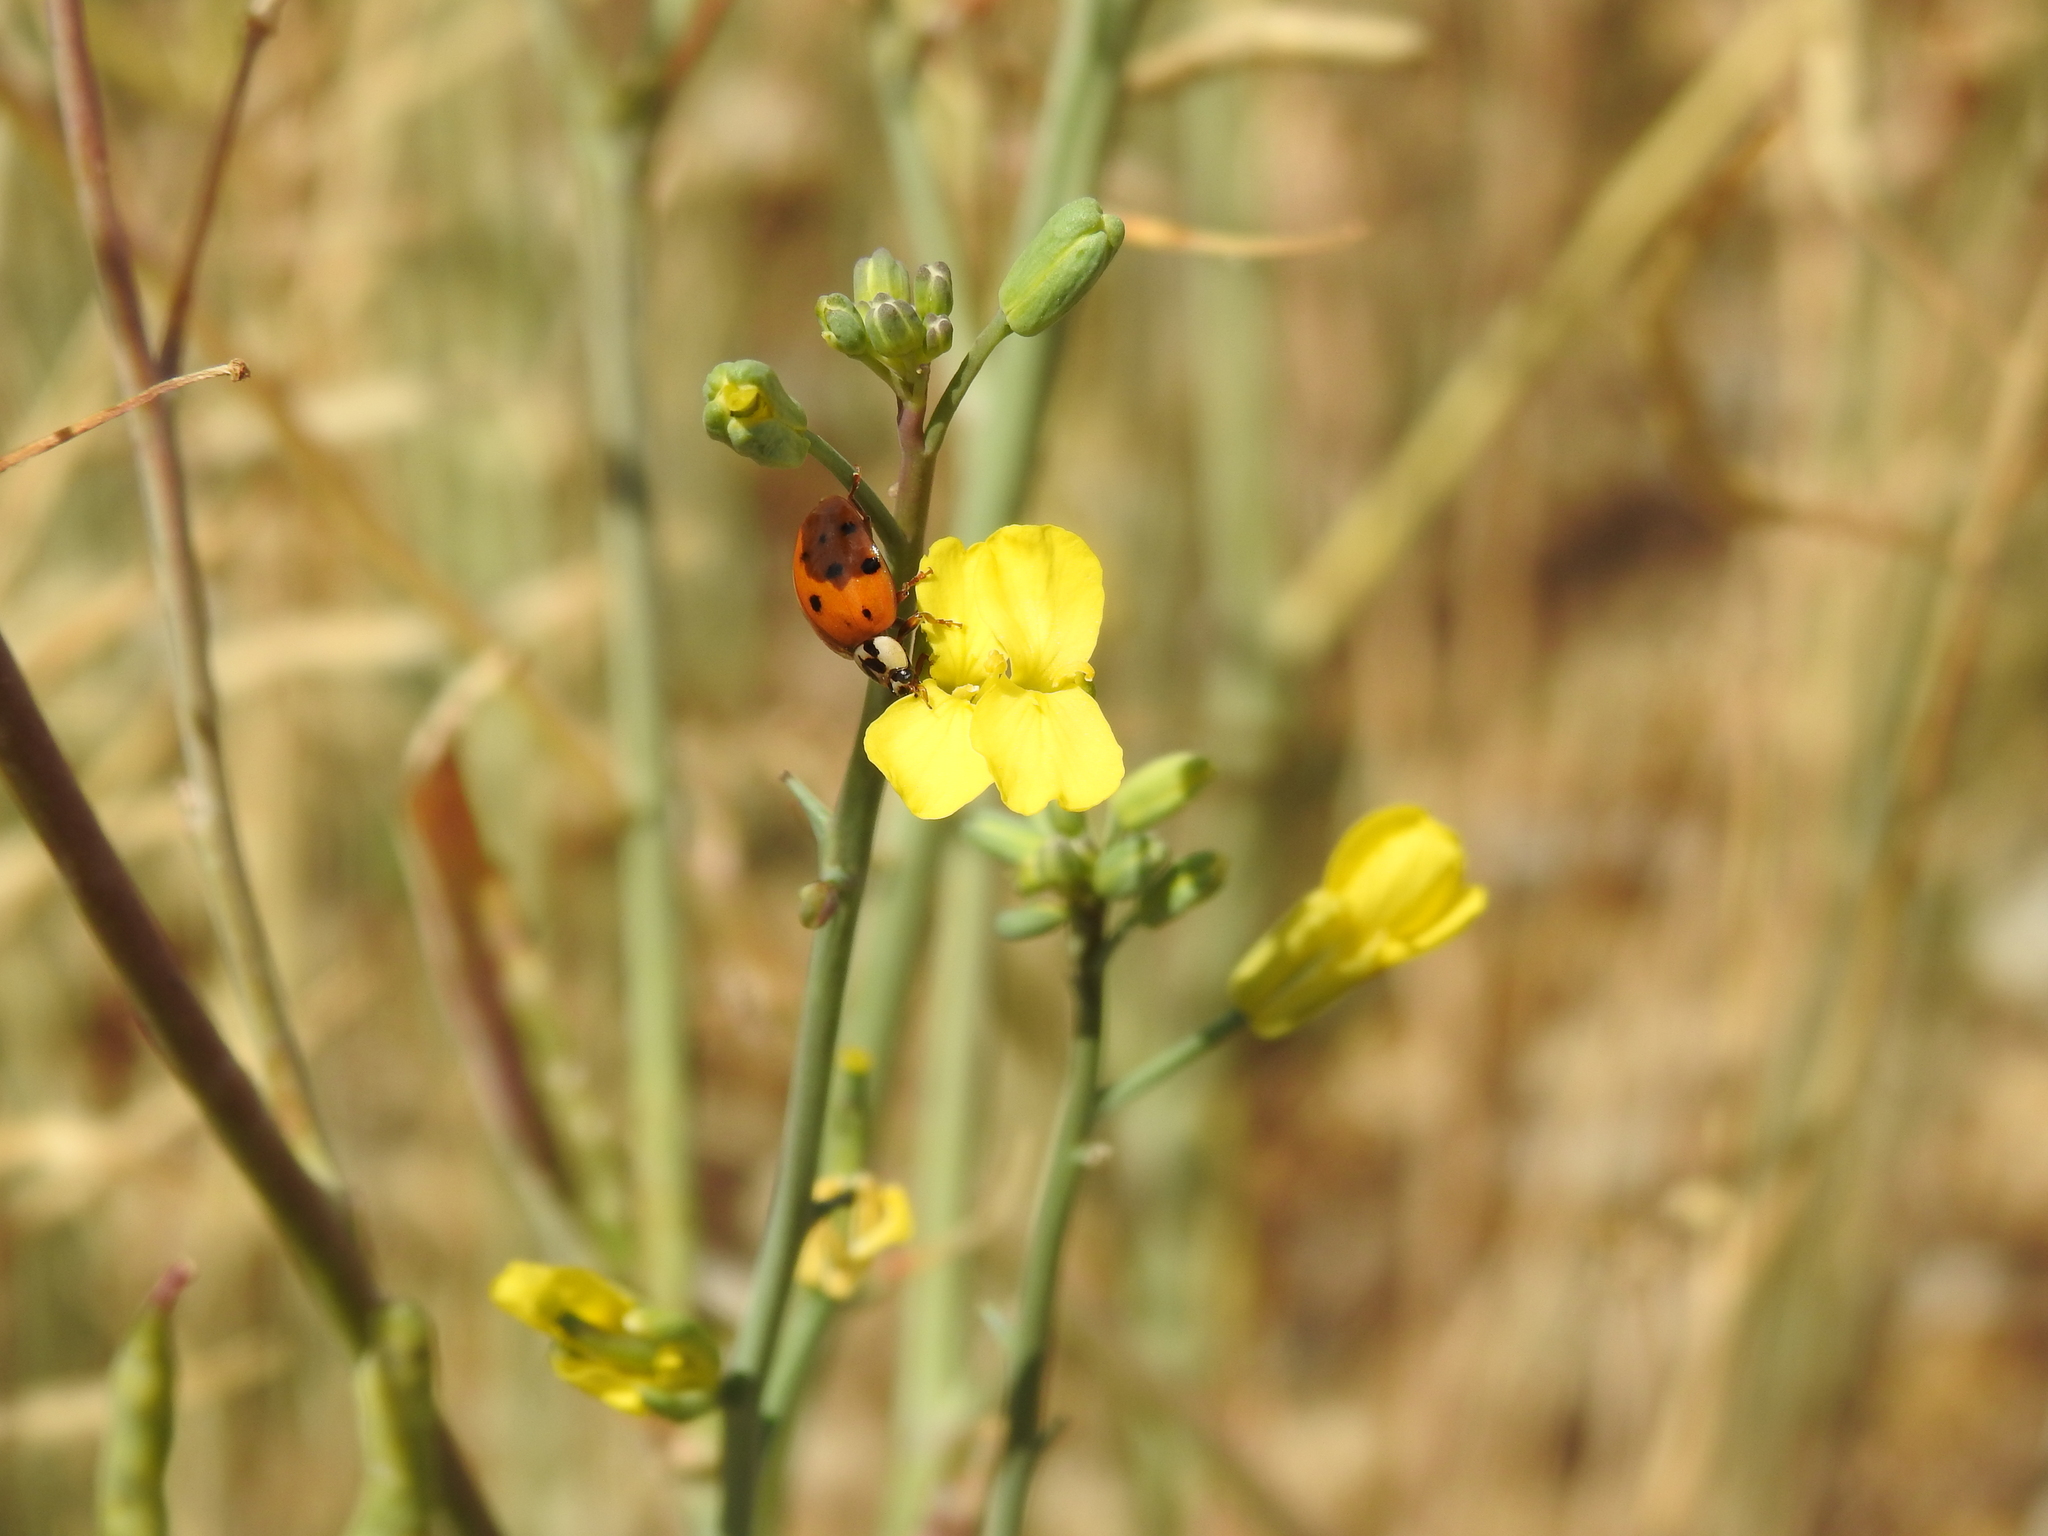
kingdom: Animalia
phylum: Arthropoda
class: Insecta
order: Coleoptera
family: Coccinellidae
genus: Harmonia
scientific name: Harmonia axyridis
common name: Harlequin ladybird
